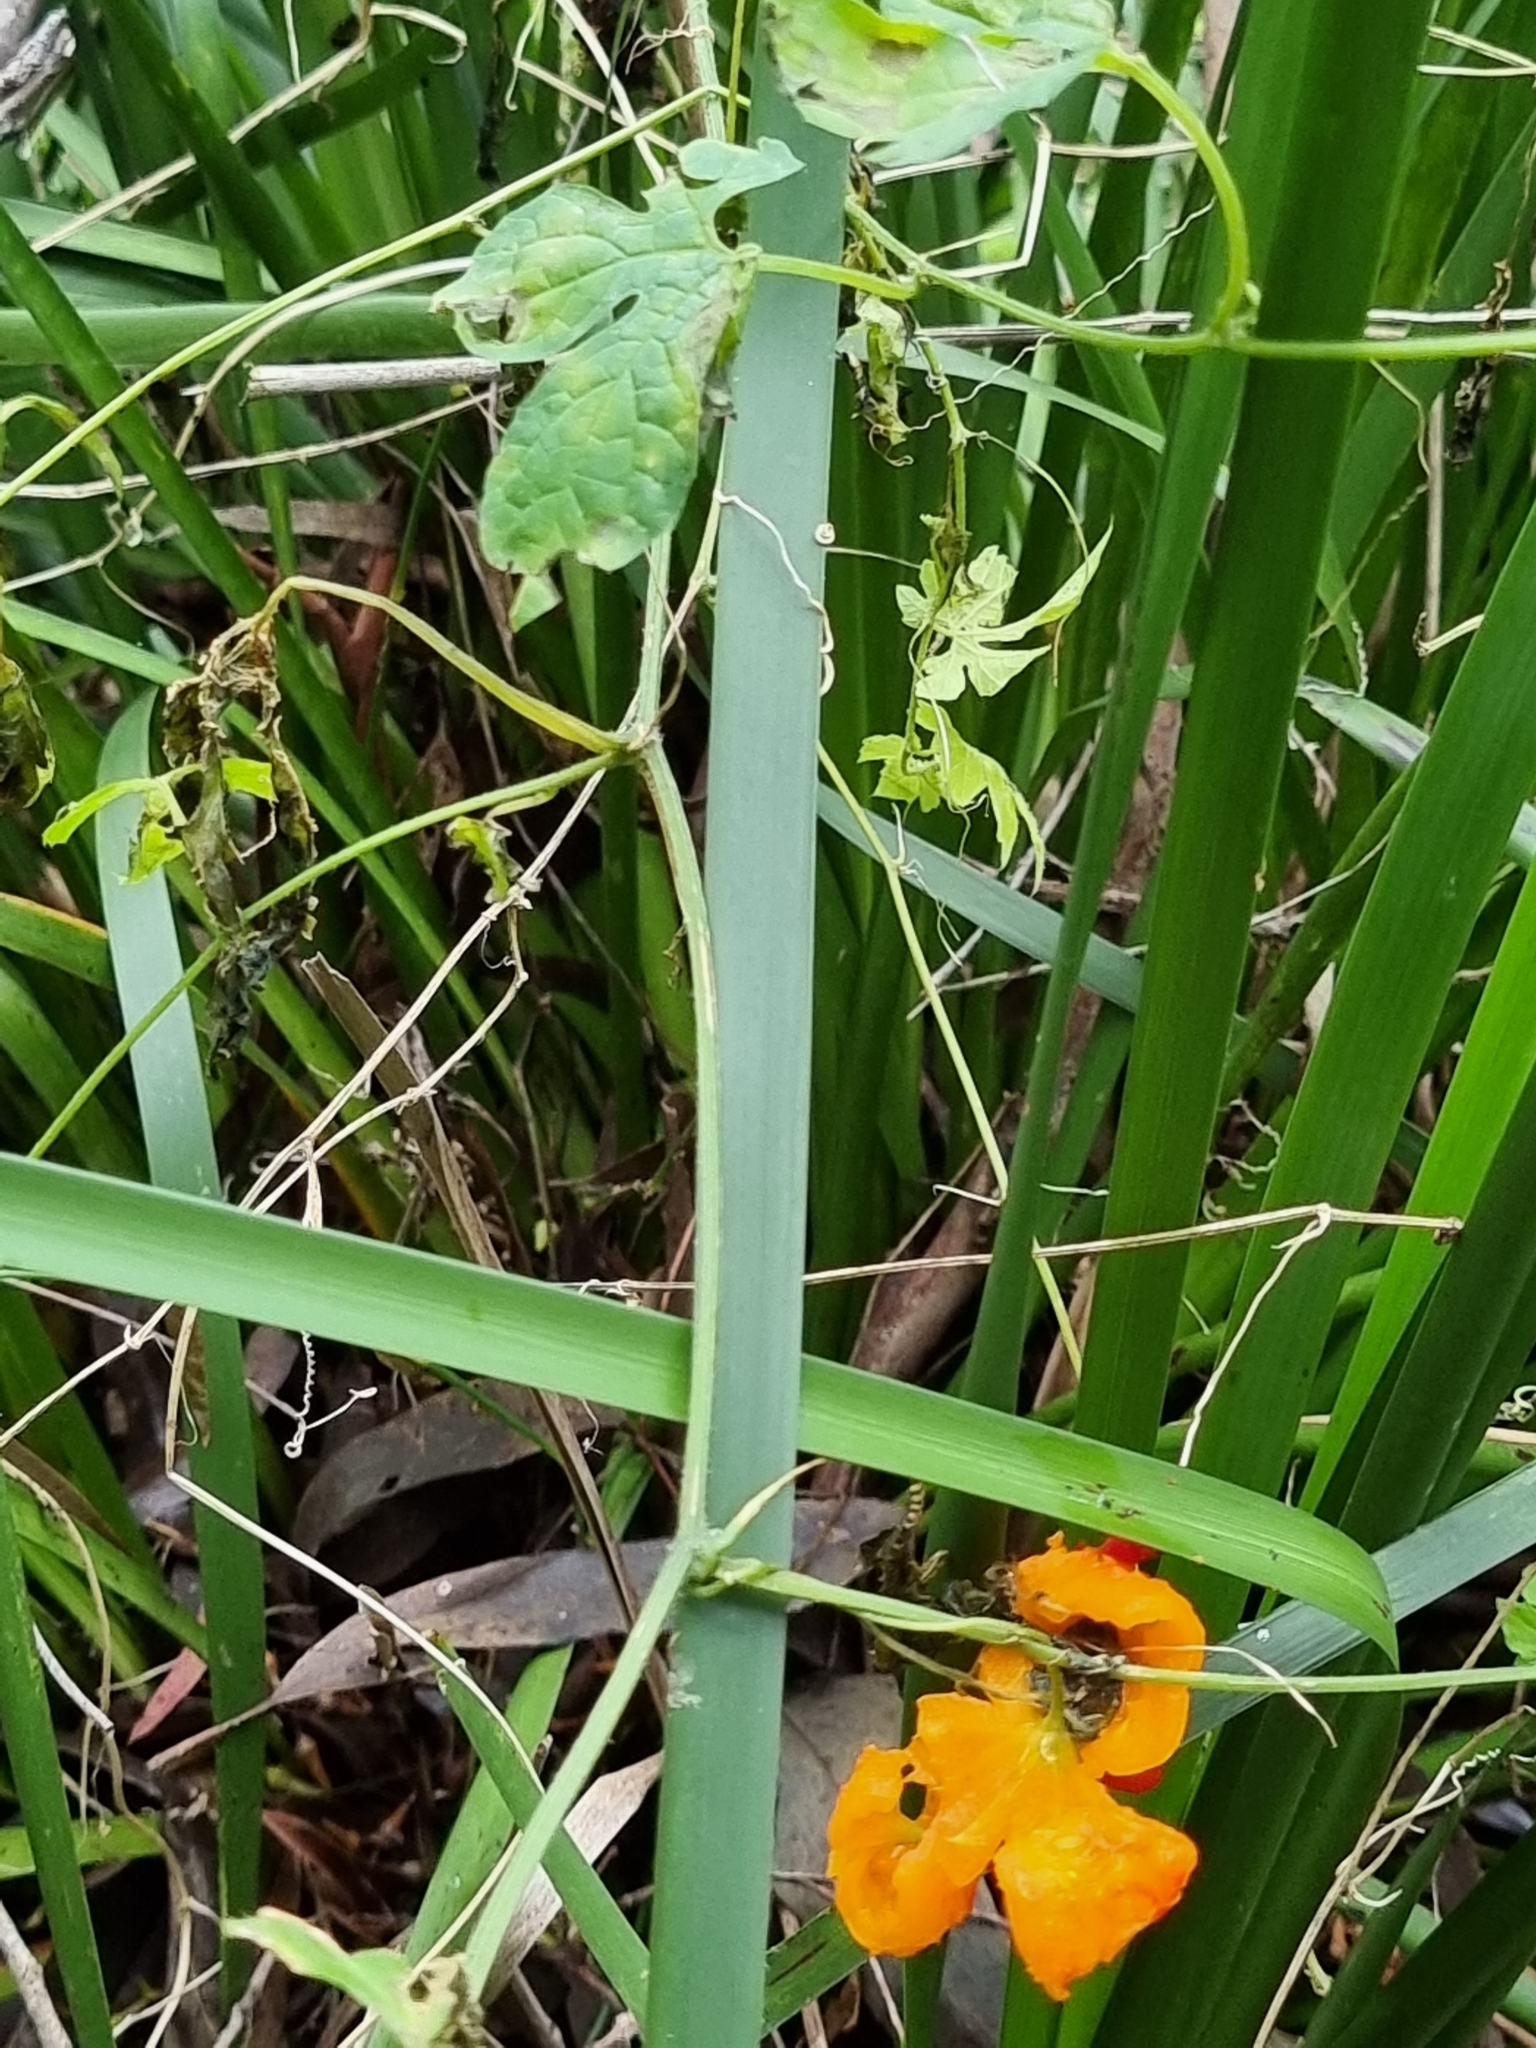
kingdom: Plantae
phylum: Tracheophyta
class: Magnoliopsida
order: Cucurbitales
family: Cucurbitaceae
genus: Momordica
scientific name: Momordica charantia
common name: Balsampear
